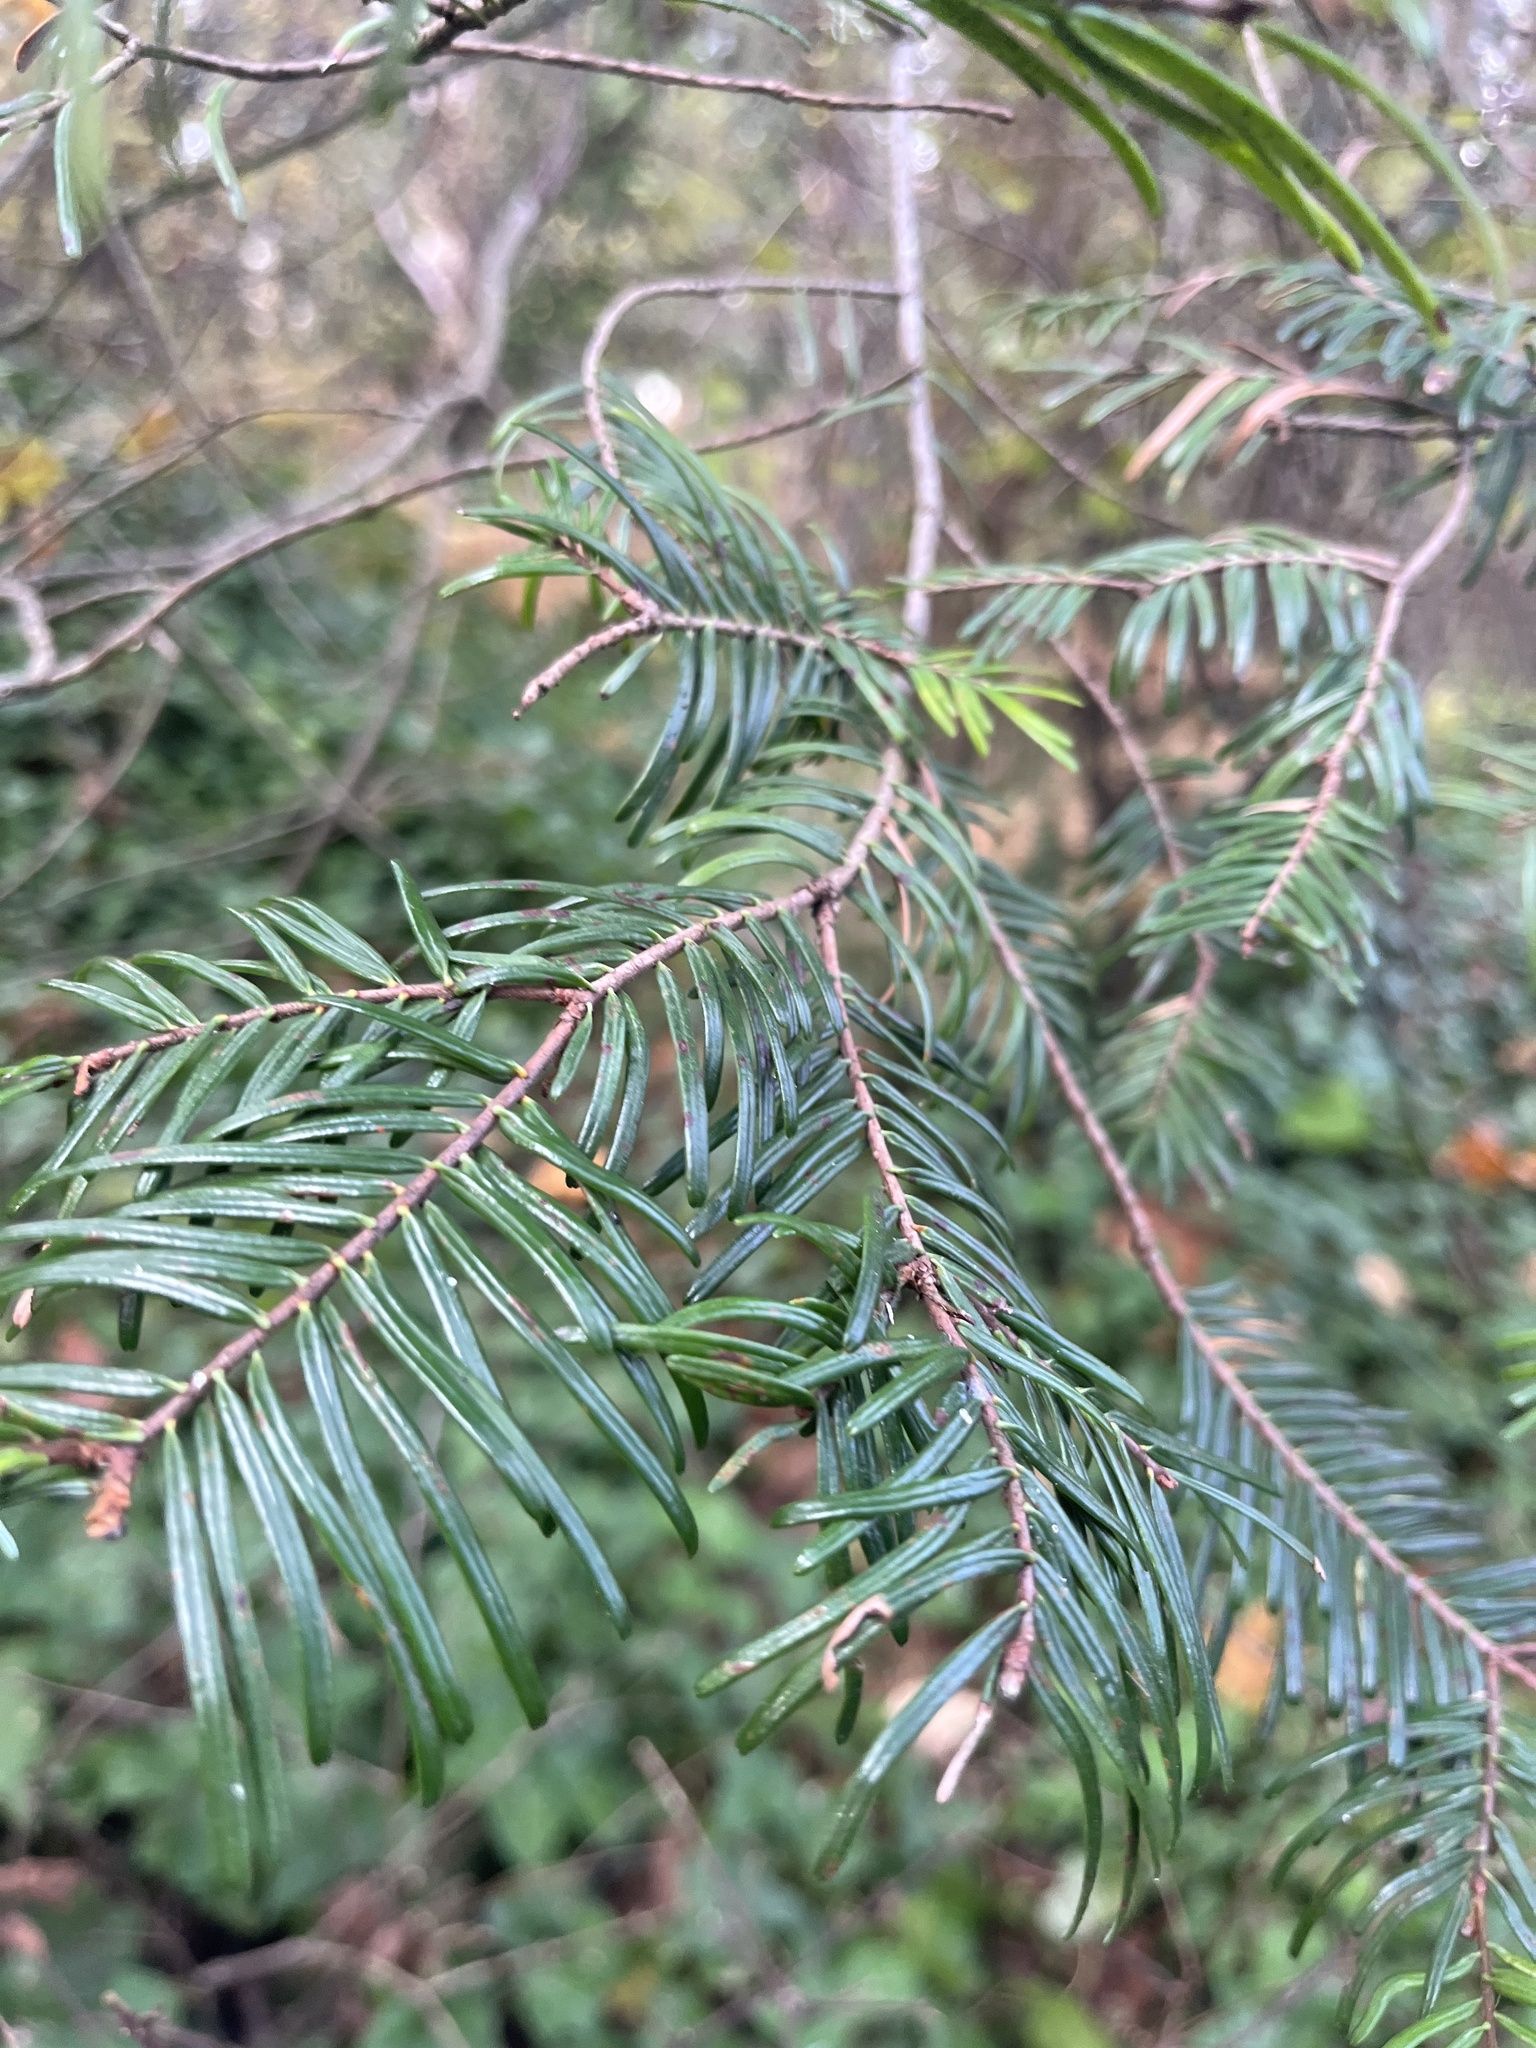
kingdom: Plantae
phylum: Tracheophyta
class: Pinopsida
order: Pinales
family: Pinaceae
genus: Abies
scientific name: Abies grandis
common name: Giant fir
